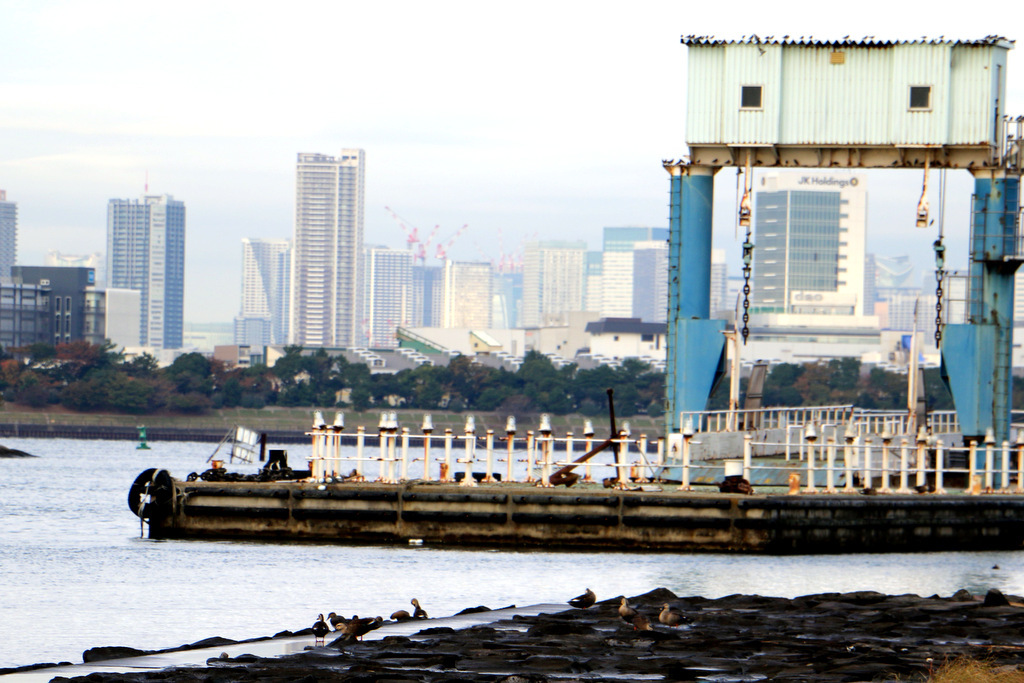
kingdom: Animalia
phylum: Chordata
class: Aves
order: Anseriformes
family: Anatidae
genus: Anas
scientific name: Anas zonorhyncha
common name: Eastern spot-billed duck
